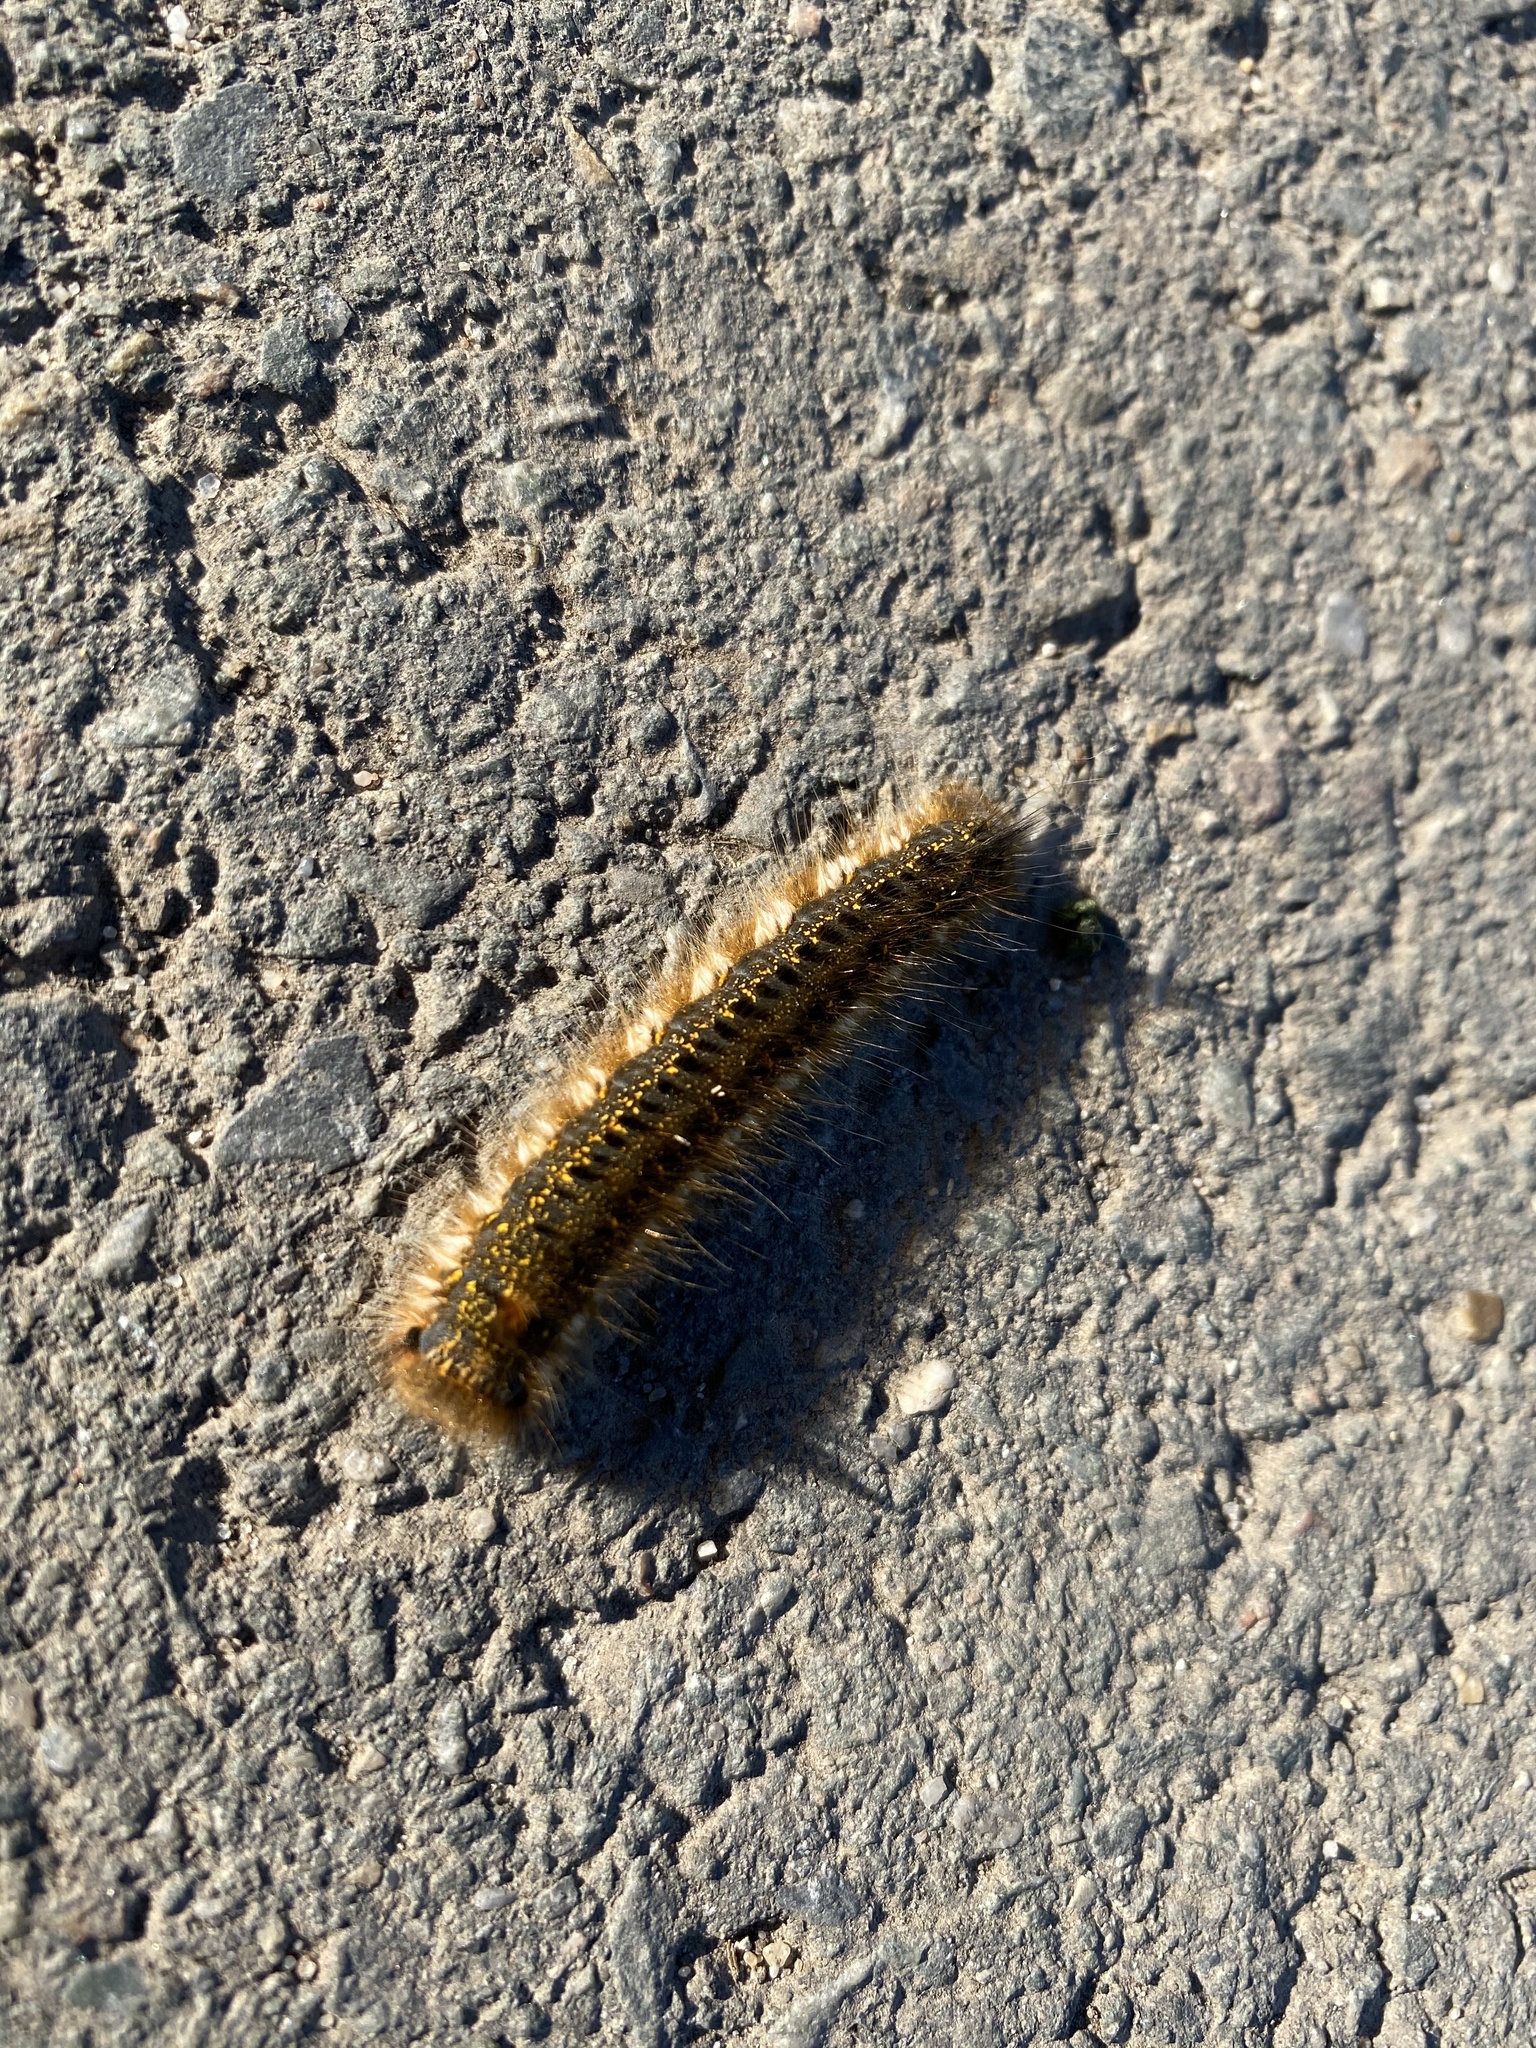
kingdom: Animalia
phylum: Arthropoda
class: Insecta
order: Lepidoptera
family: Lasiocampidae
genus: Euthrix
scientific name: Euthrix potatoria
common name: Drinker
